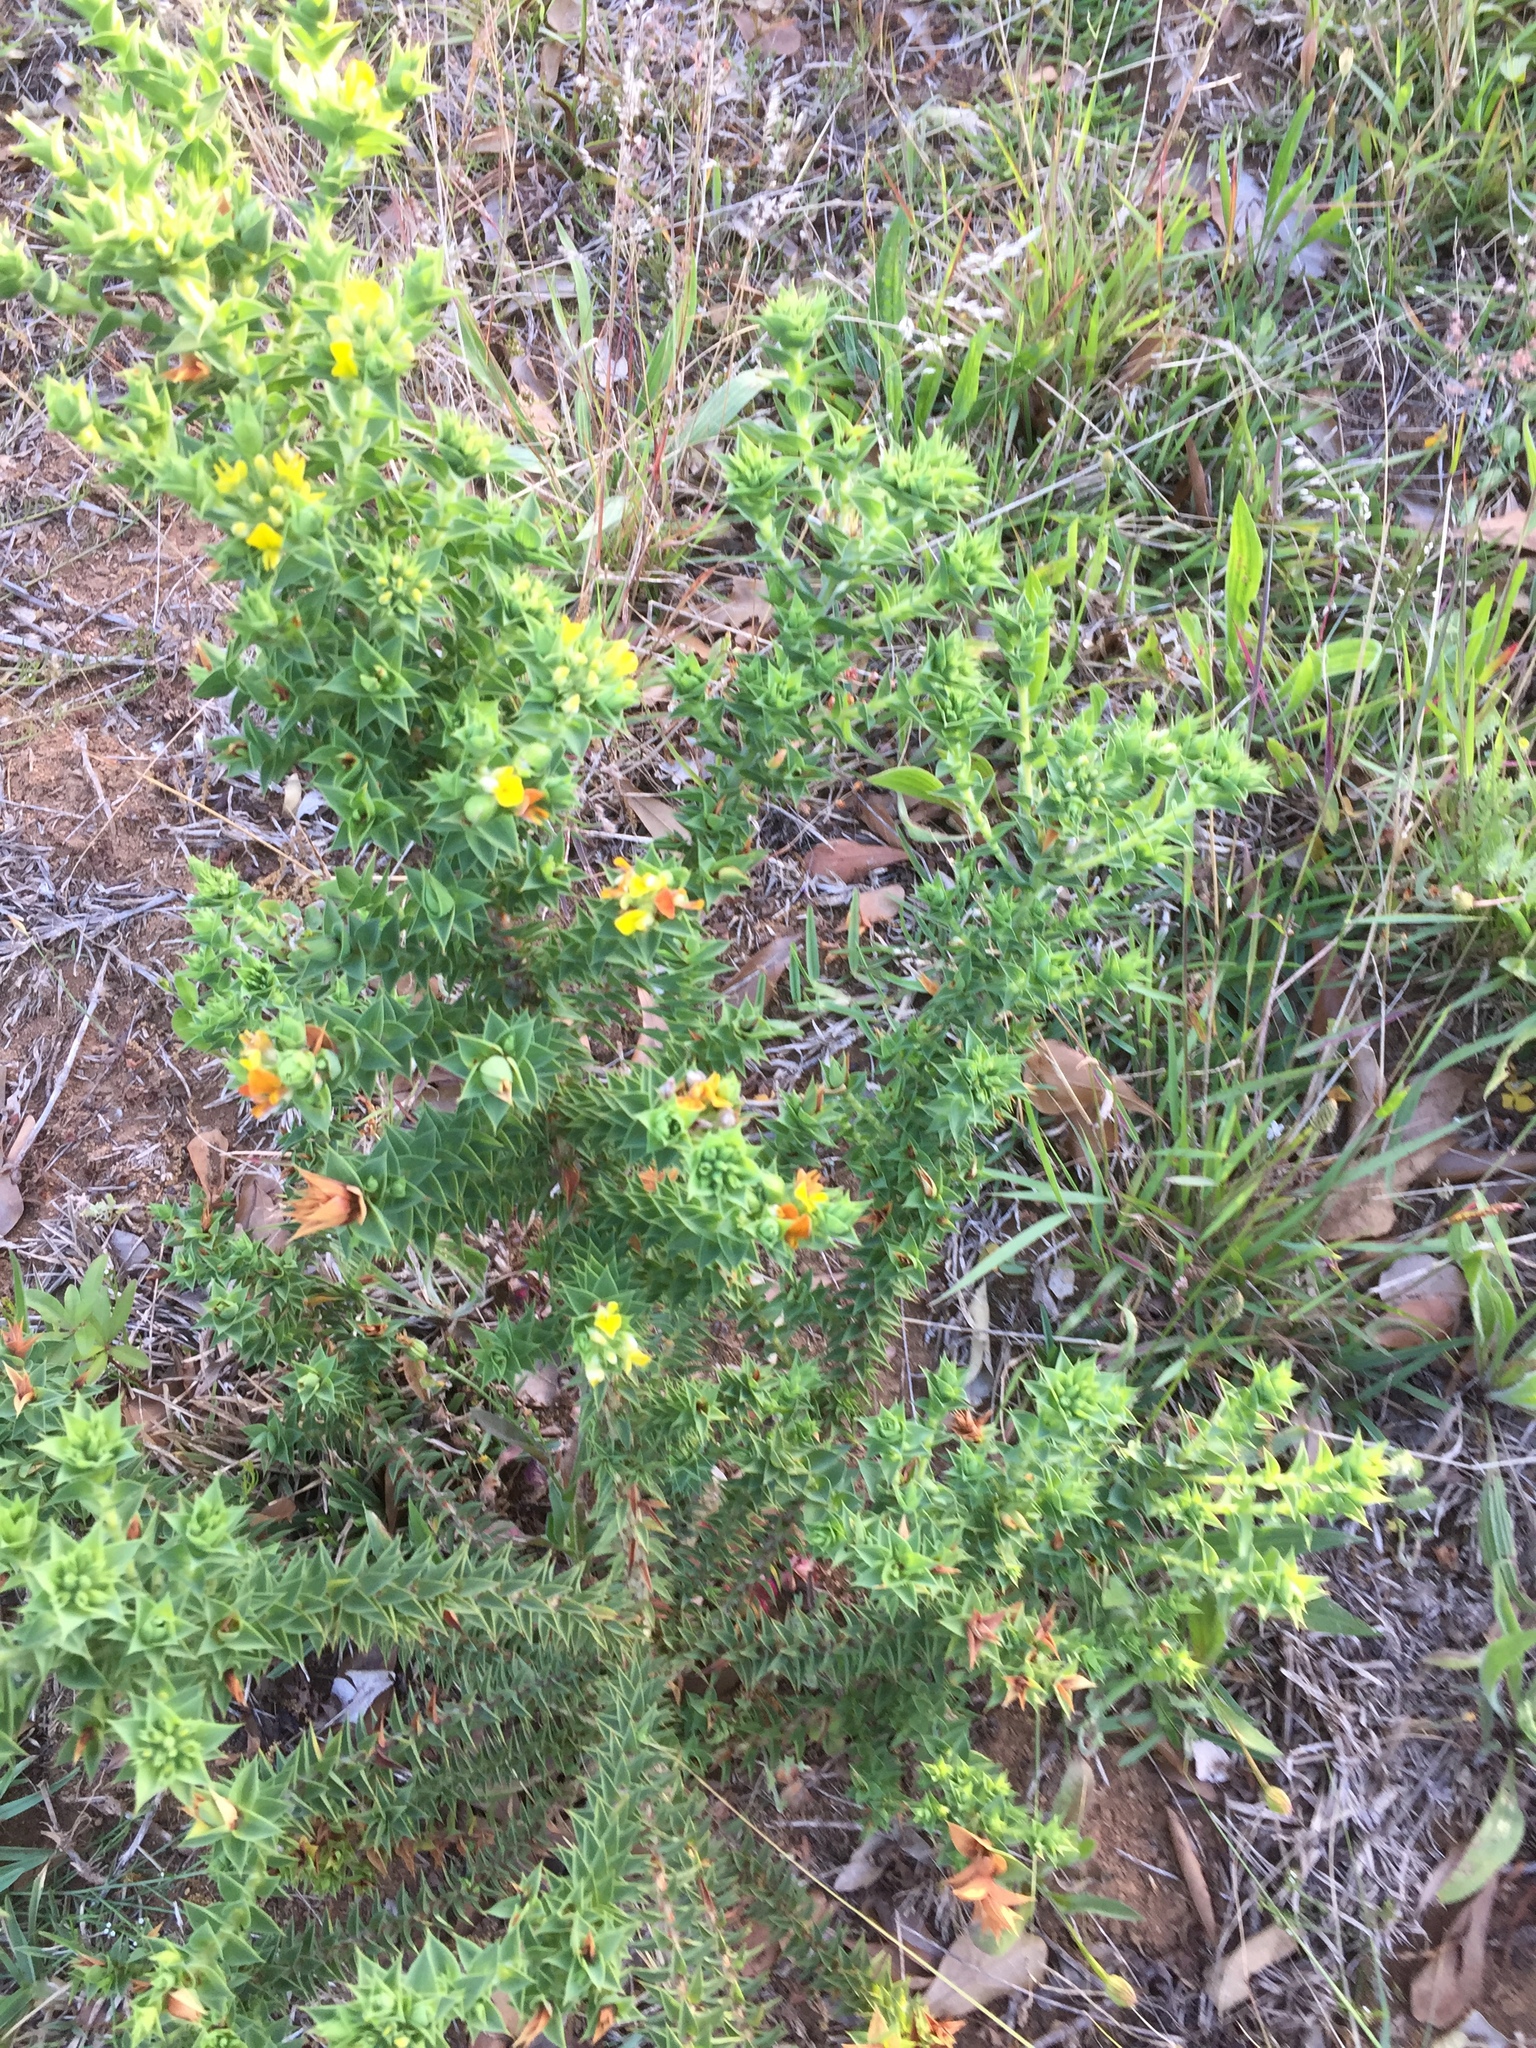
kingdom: Plantae
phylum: Tracheophyta
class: Magnoliopsida
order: Fabales
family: Fabaceae
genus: Aspalathus
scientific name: Aspalathus cordata
